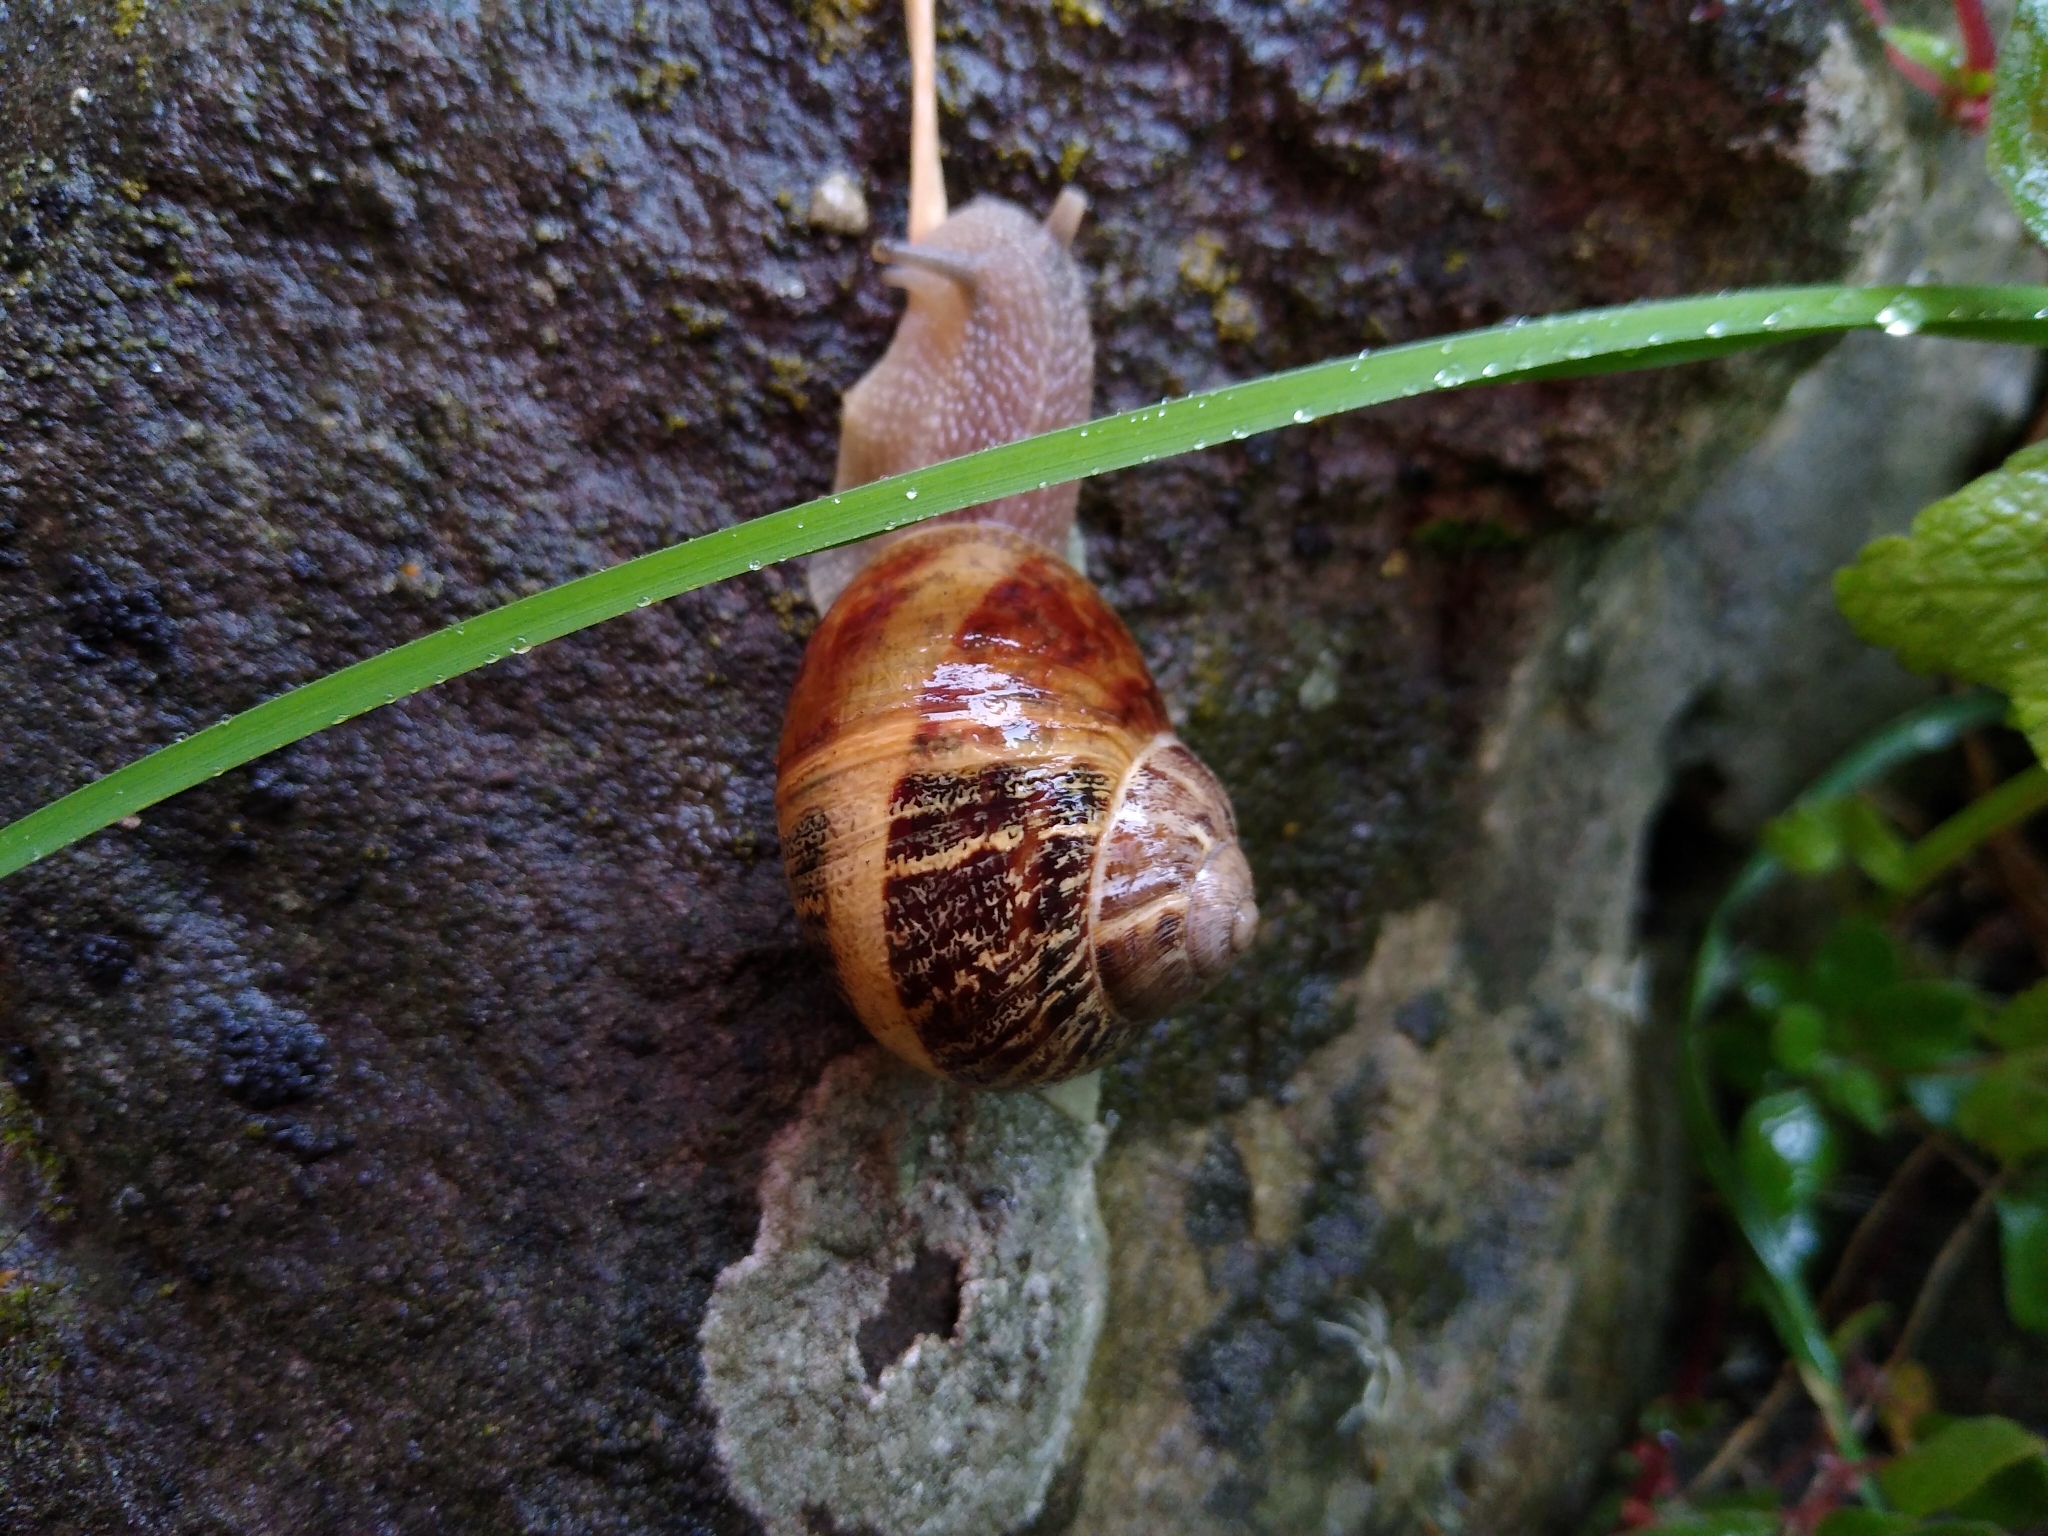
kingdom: Animalia
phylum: Mollusca
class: Gastropoda
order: Stylommatophora
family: Helicidae
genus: Cornu
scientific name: Cornu aspersum
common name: Brown garden snail
